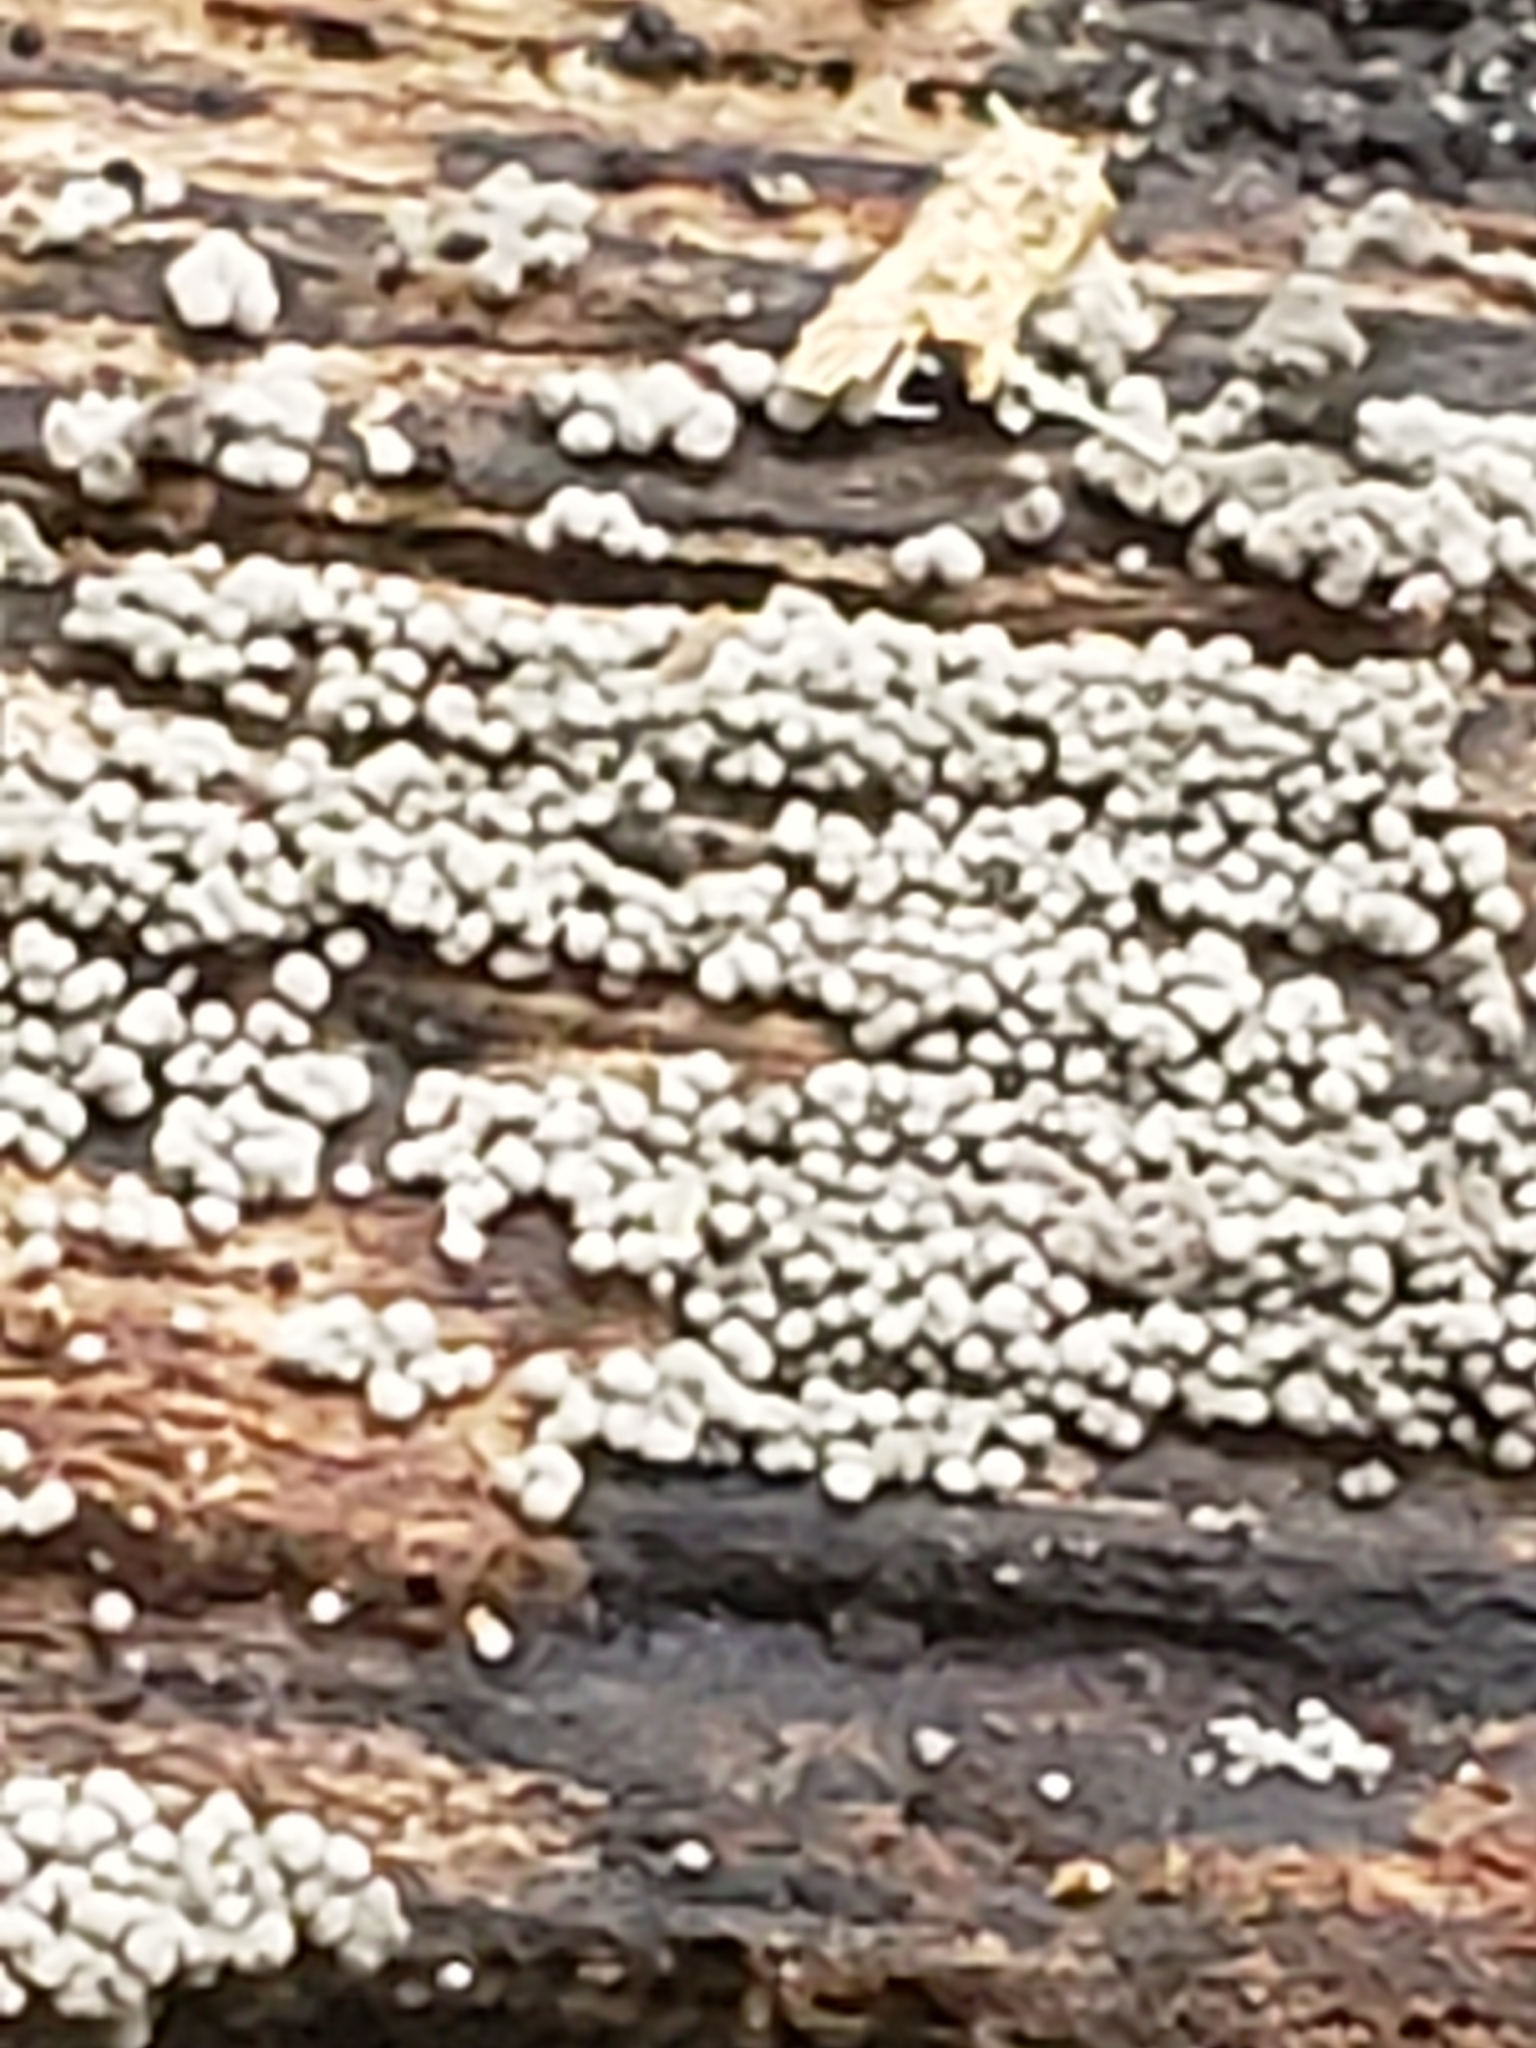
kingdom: Fungi
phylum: Basidiomycota
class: Agaricomycetes
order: Russulales
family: Stereaceae
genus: Xylobolus
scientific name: Xylobolus frustulatus
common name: Ceramic parchment
